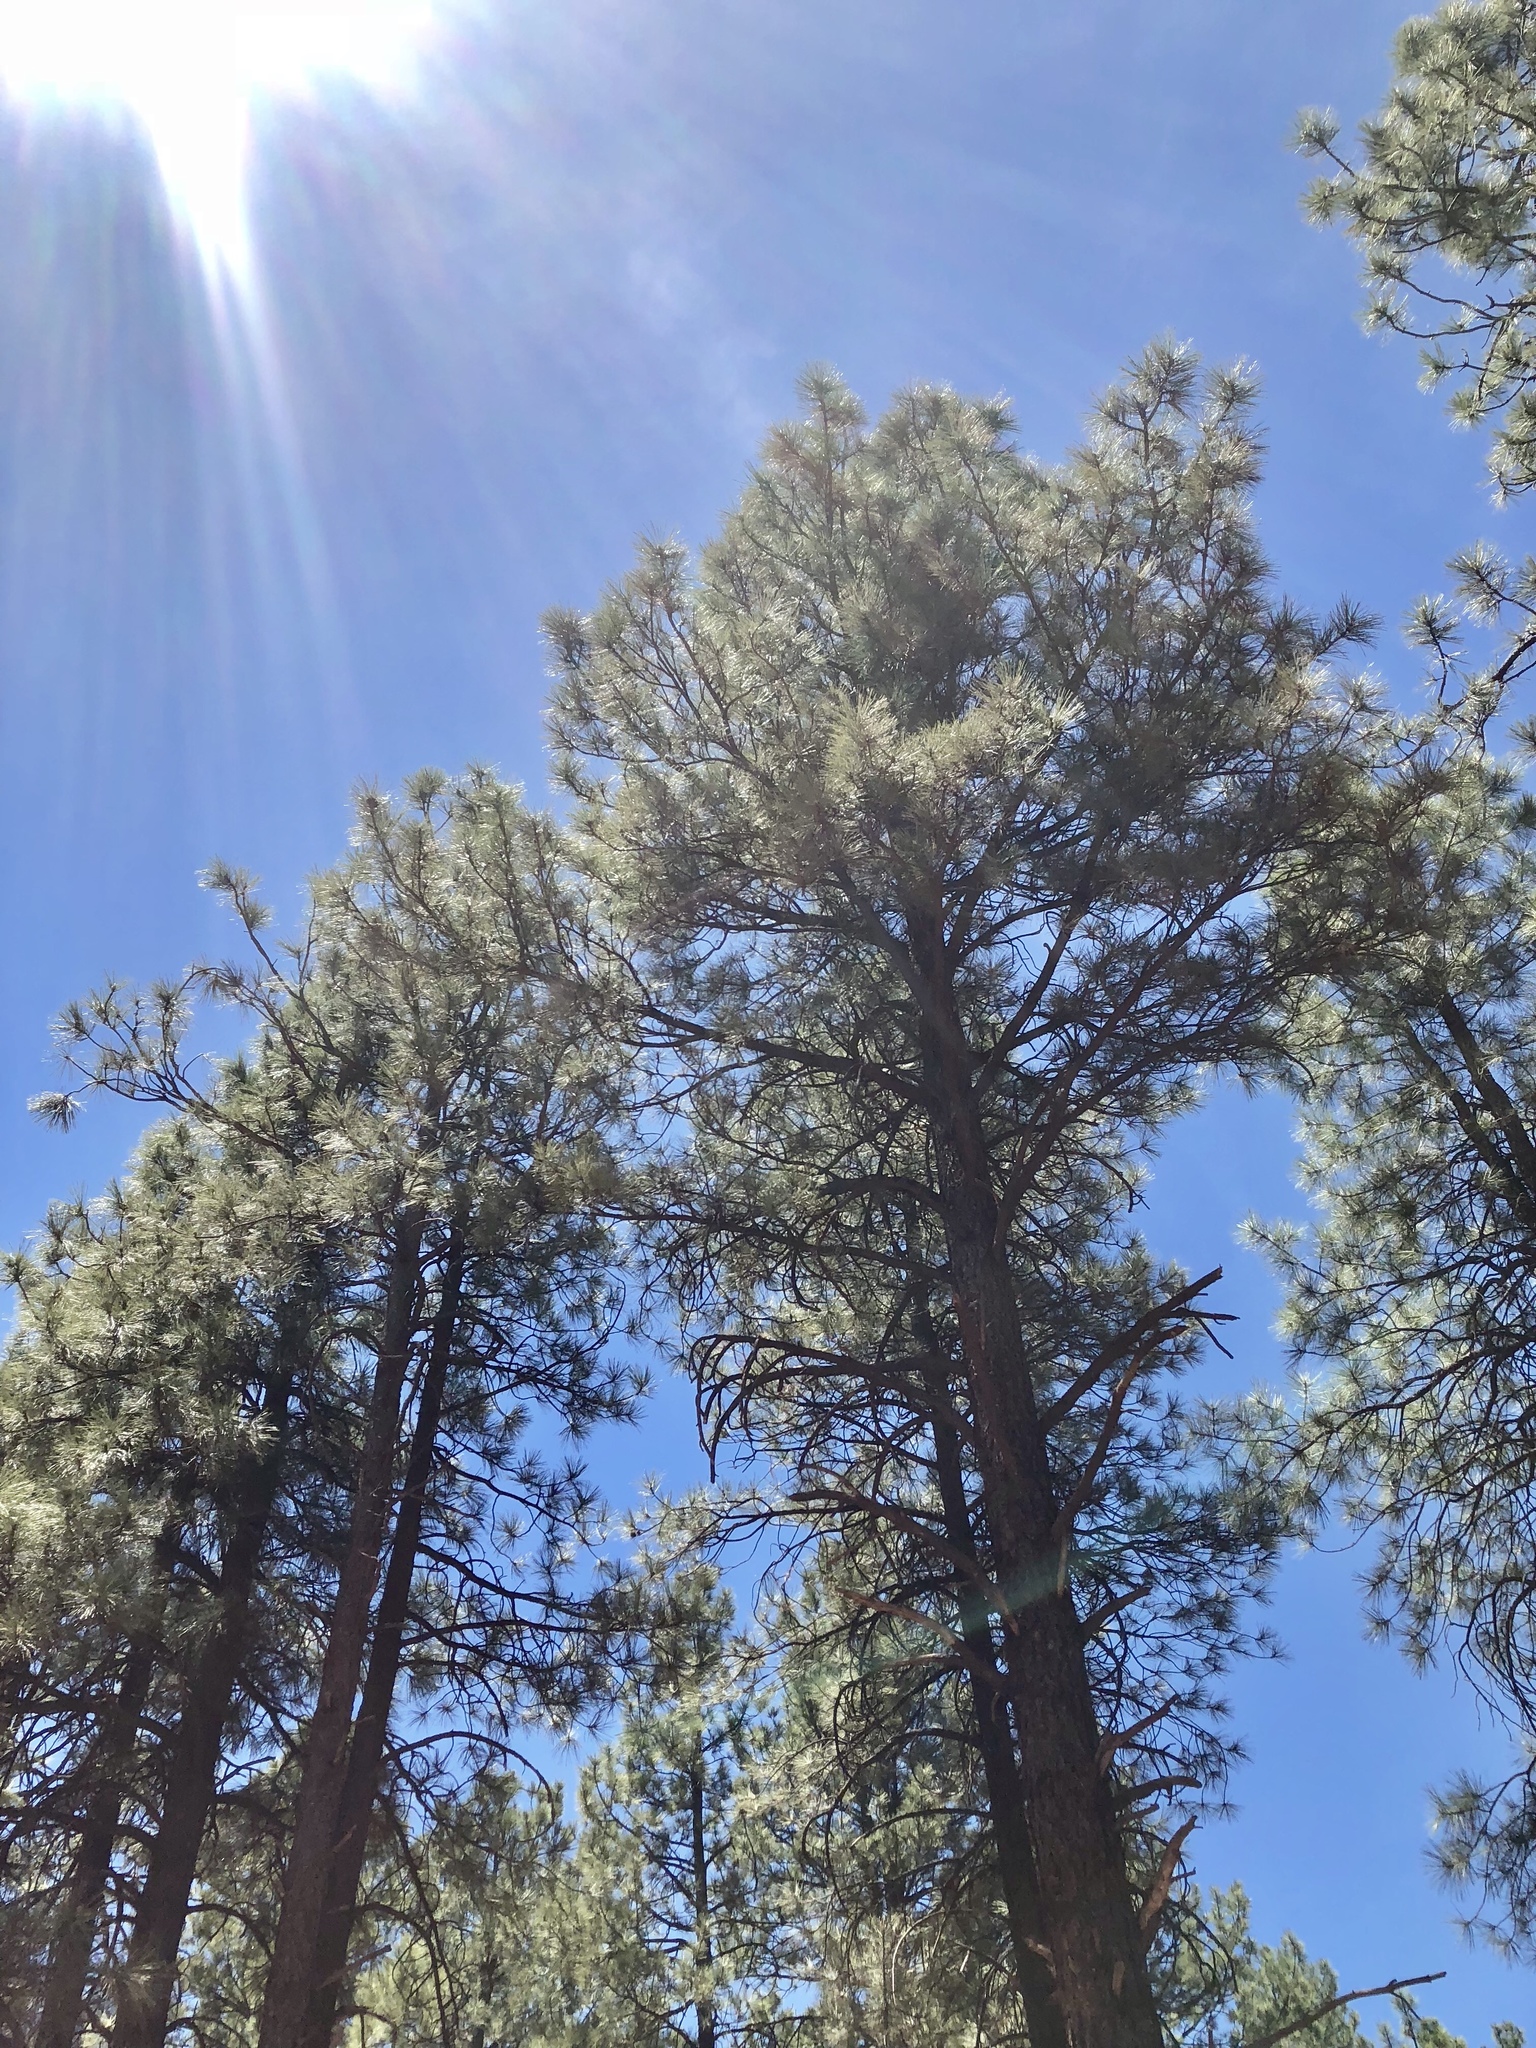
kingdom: Plantae
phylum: Tracheophyta
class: Pinopsida
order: Pinales
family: Pinaceae
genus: Pinus
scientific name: Pinus ponderosa
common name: Western yellow-pine
